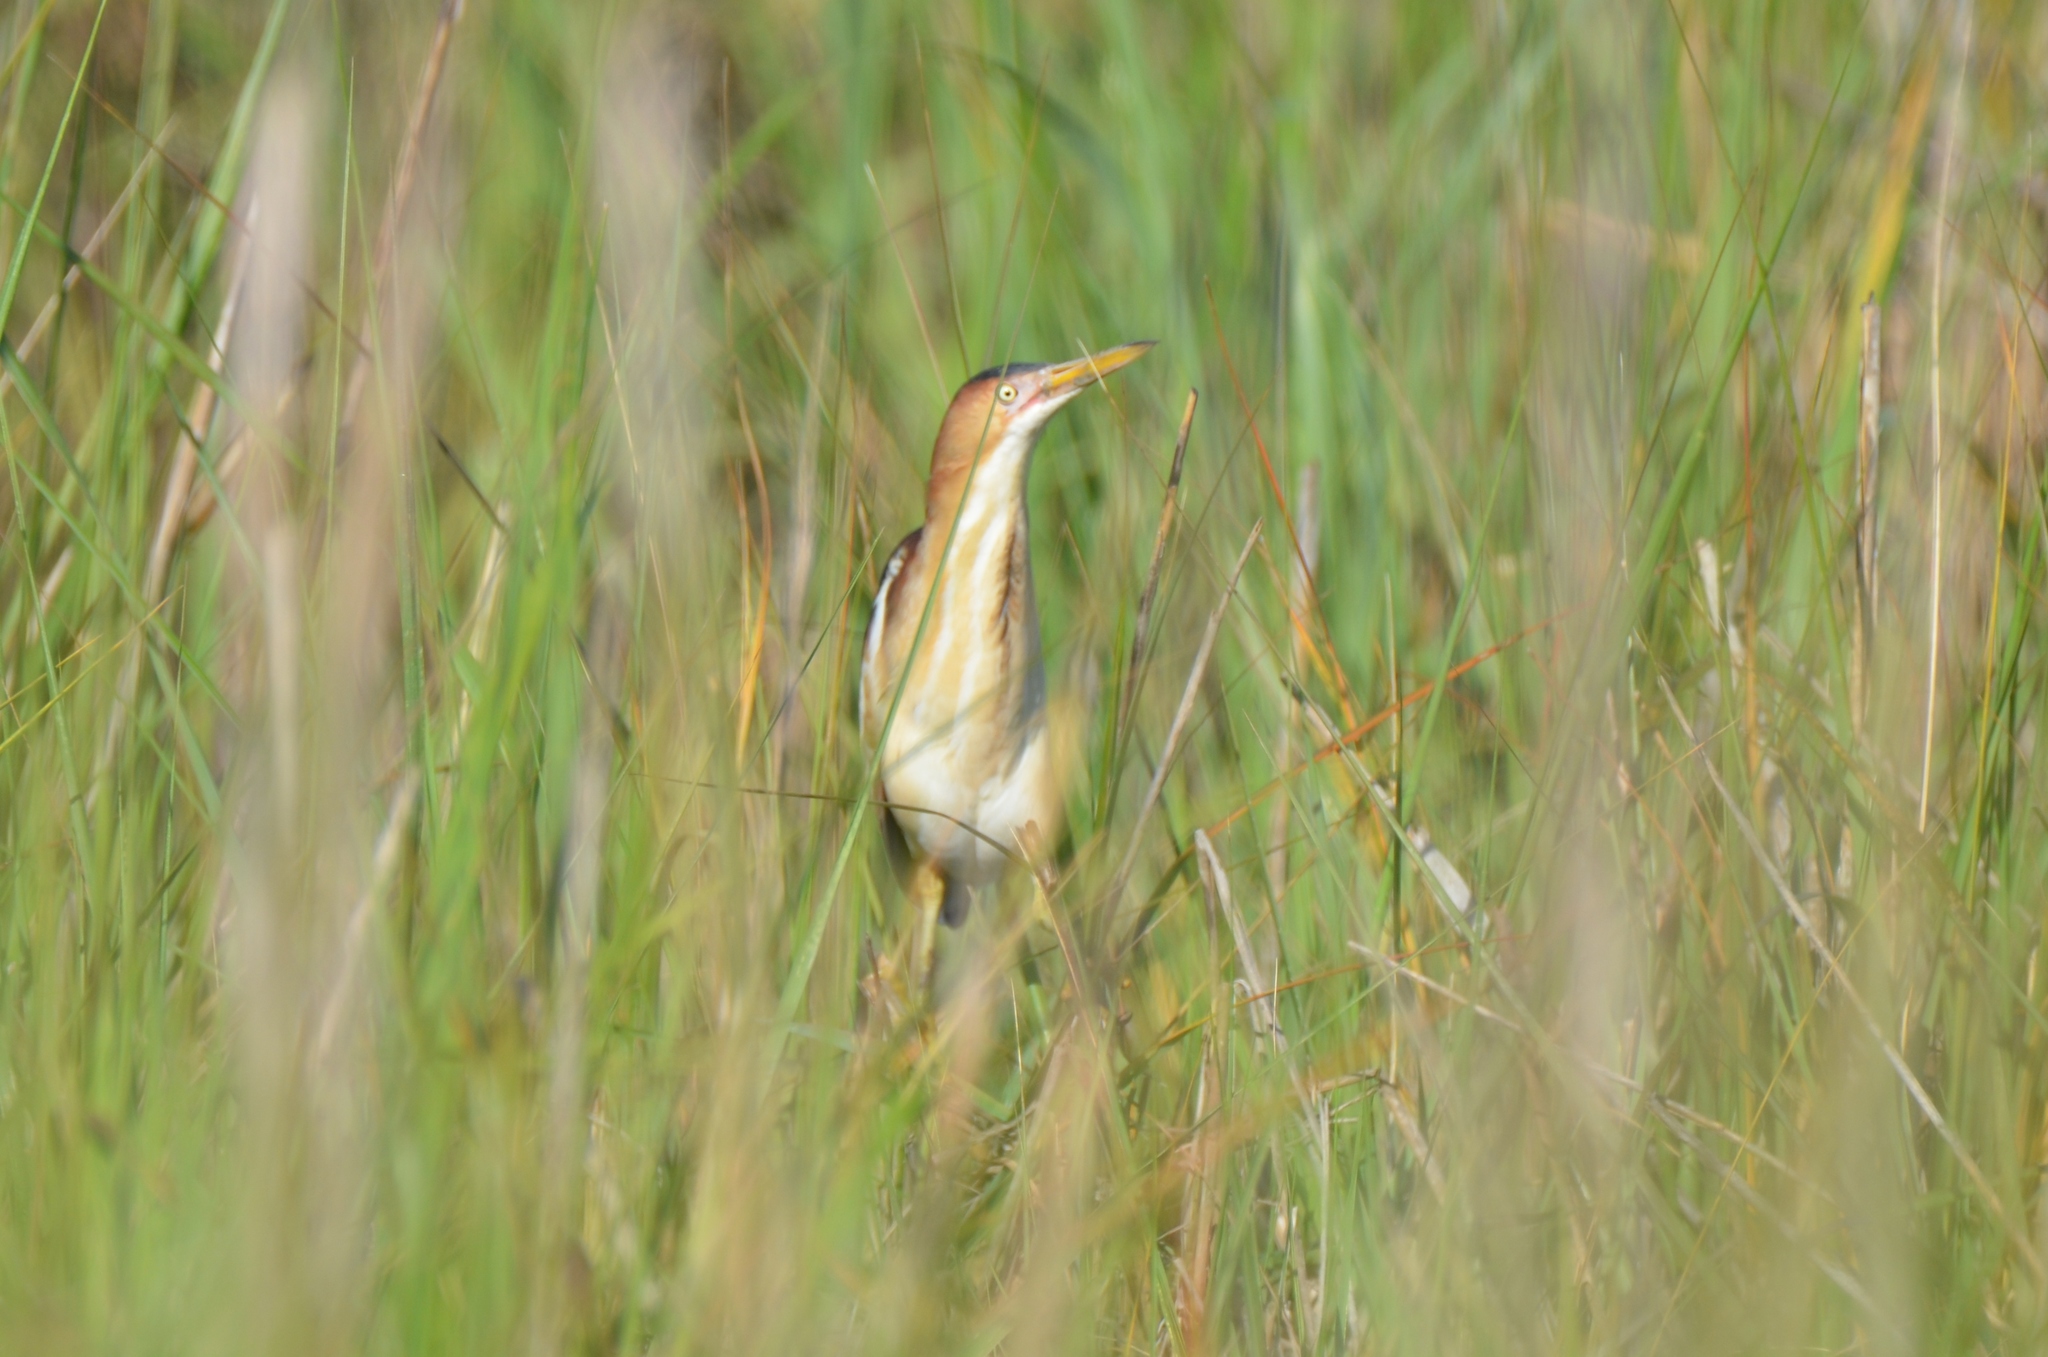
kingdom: Animalia
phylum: Chordata
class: Aves
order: Pelecaniformes
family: Ardeidae
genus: Ixobrychus
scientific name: Ixobrychus exilis
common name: Least bittern
